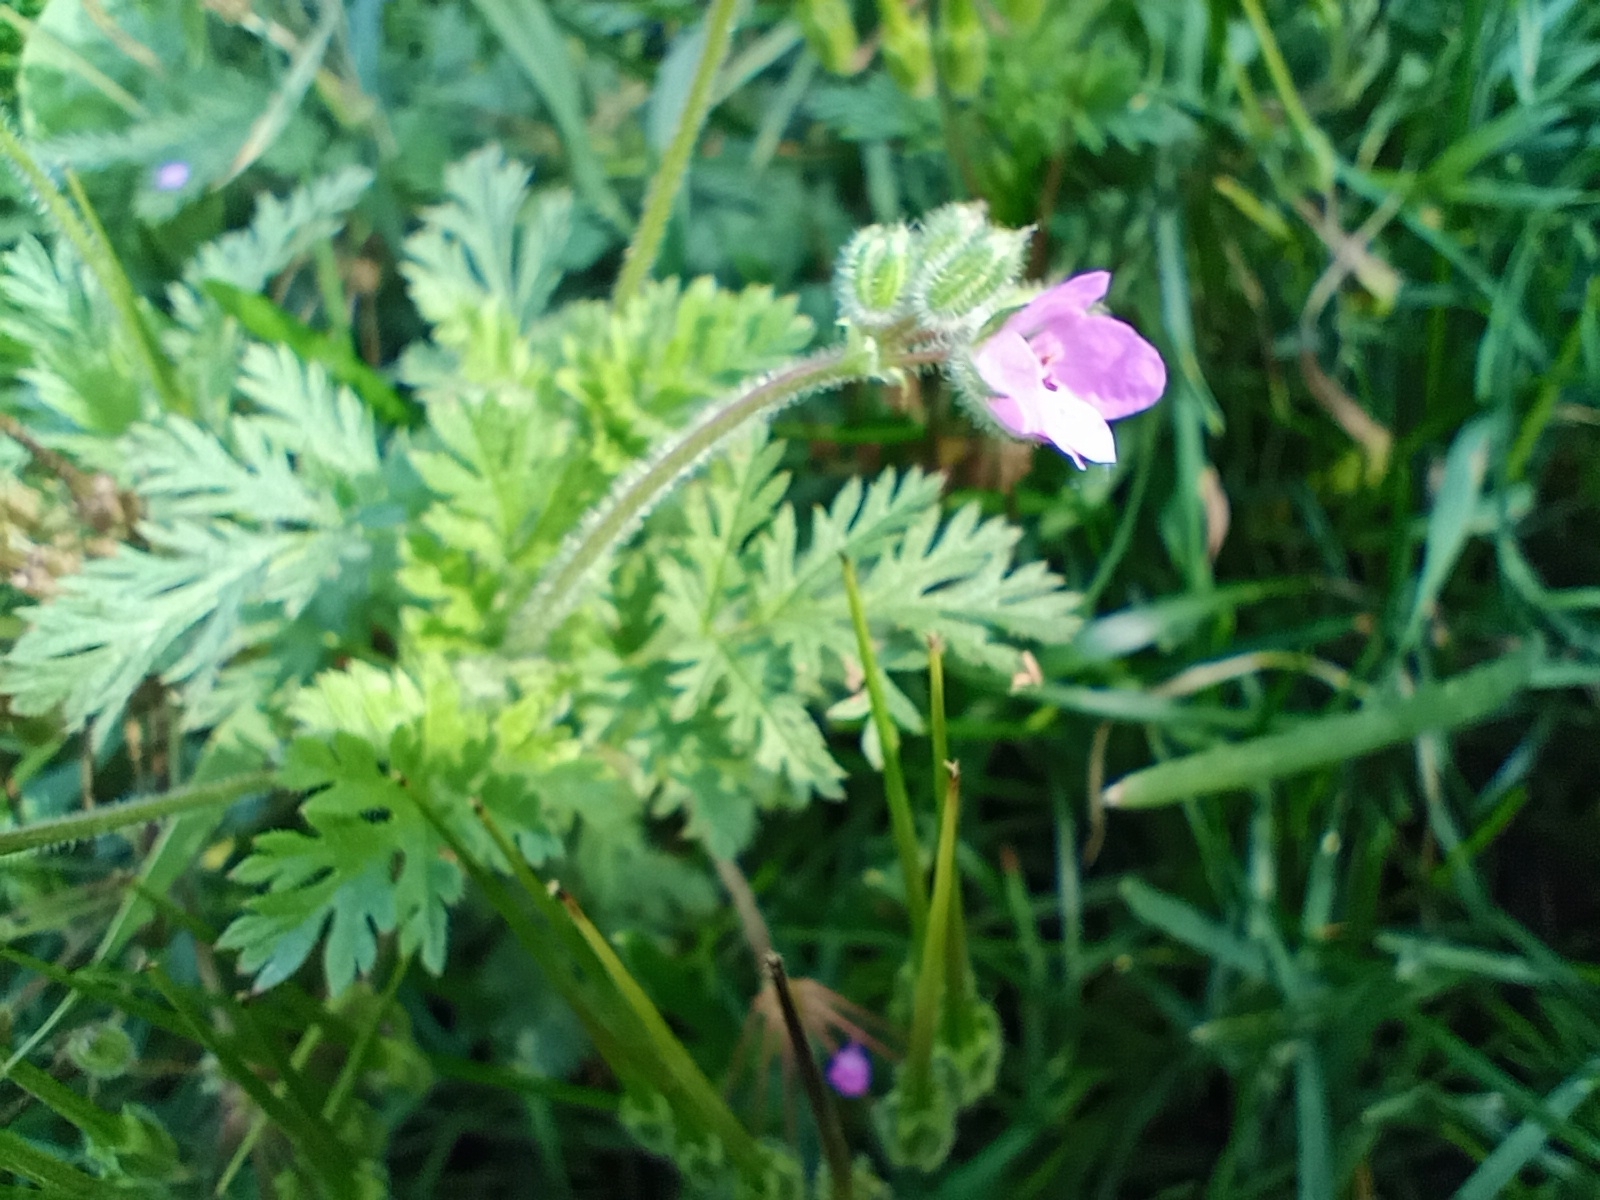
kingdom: Plantae
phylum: Tracheophyta
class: Magnoliopsida
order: Geraniales
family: Geraniaceae
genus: Erodium
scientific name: Erodium cicutarium
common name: Common stork's-bill
